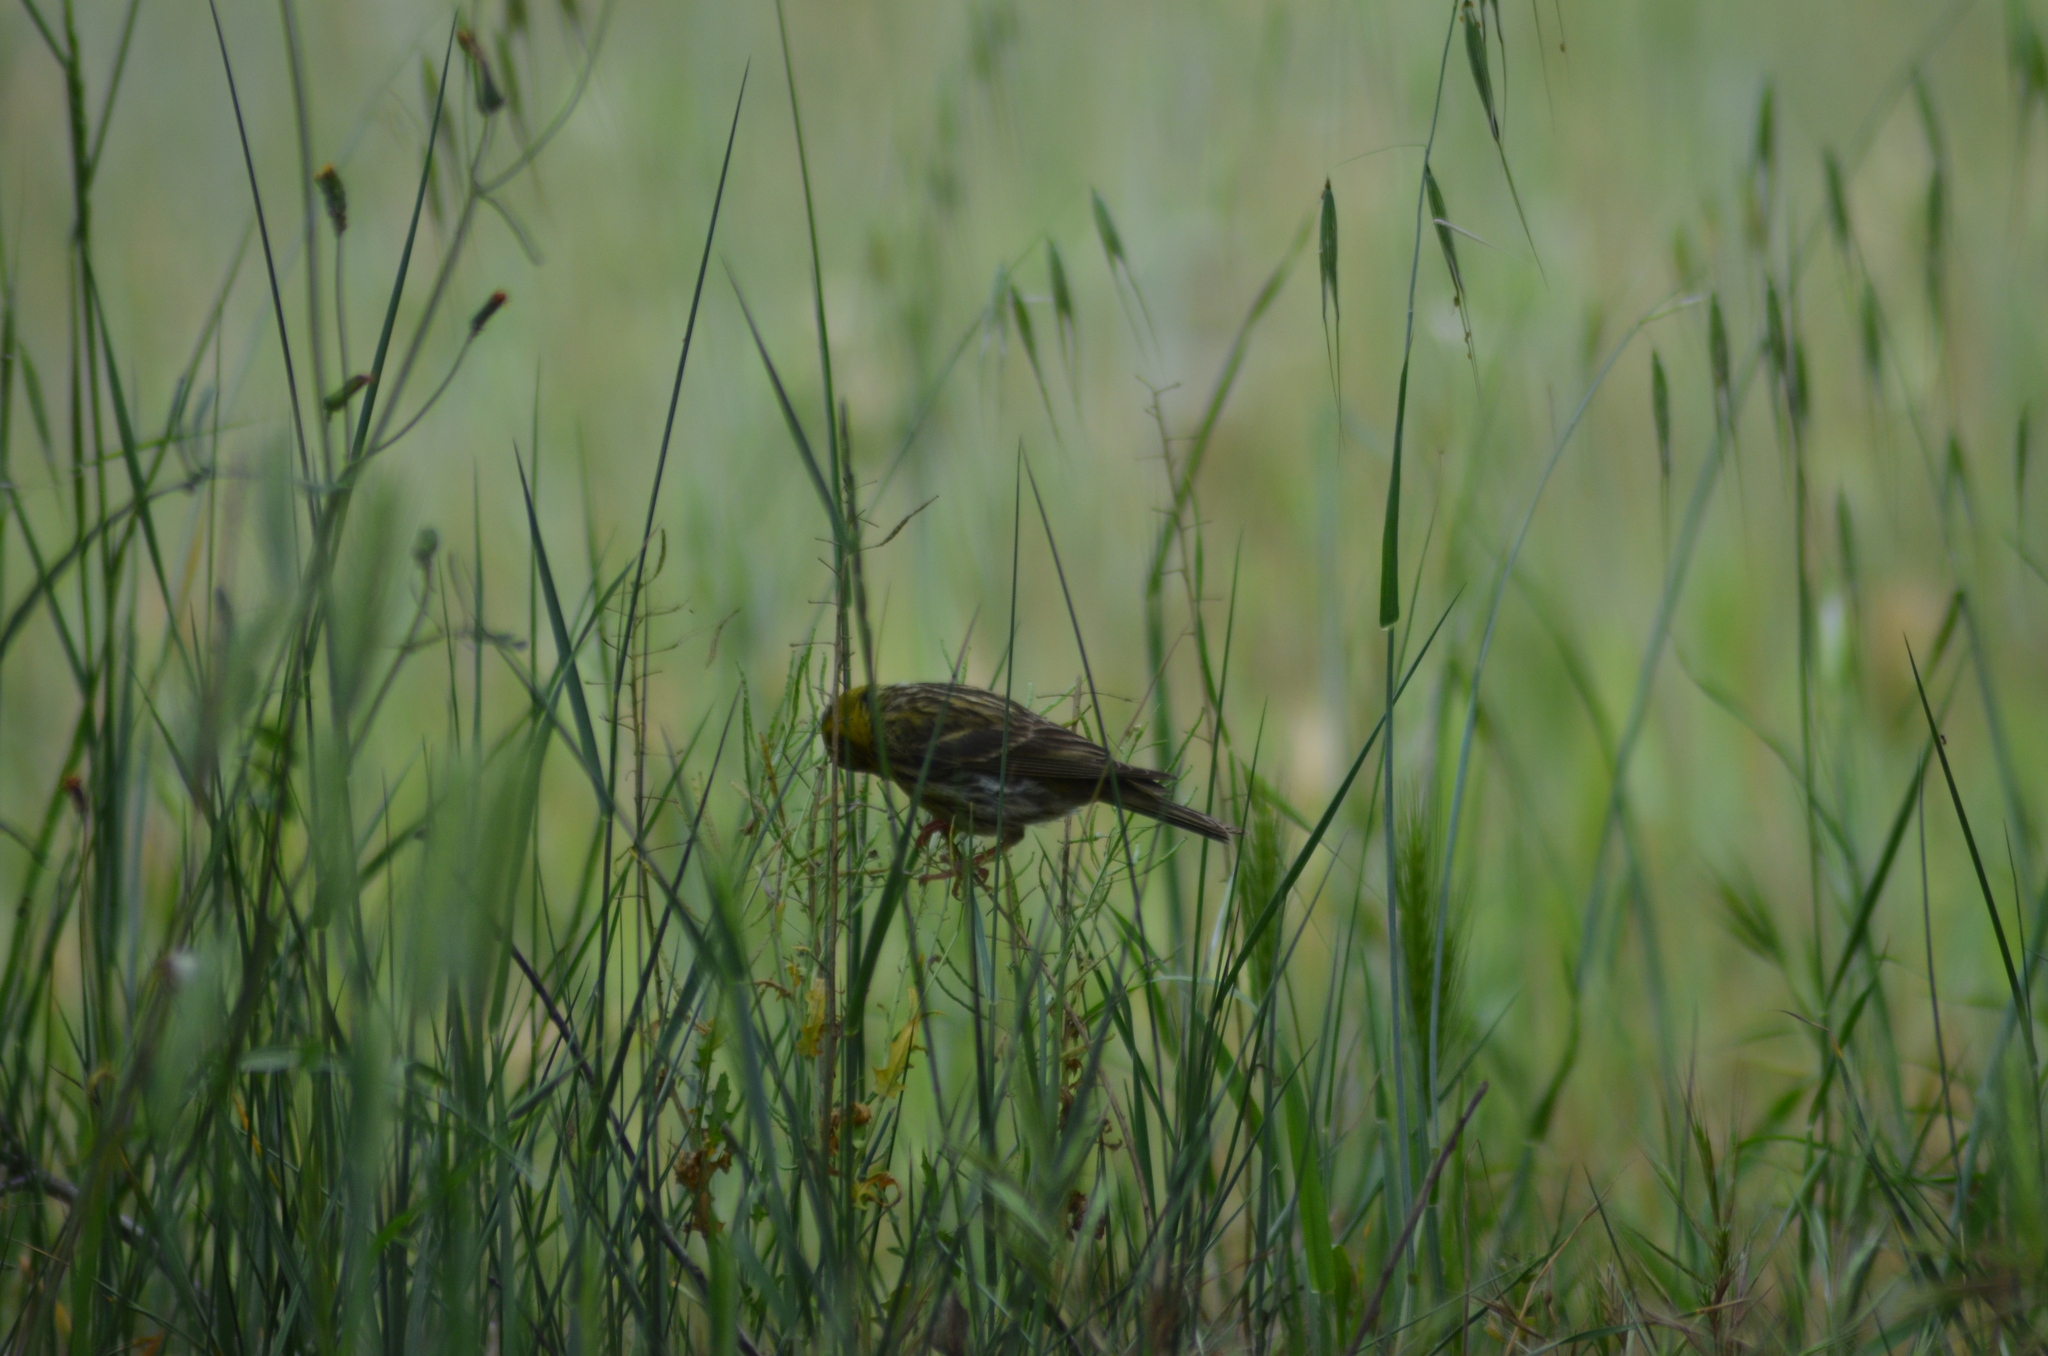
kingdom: Animalia
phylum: Chordata
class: Aves
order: Passeriformes
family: Fringillidae
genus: Serinus
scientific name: Serinus serinus
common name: European serin
